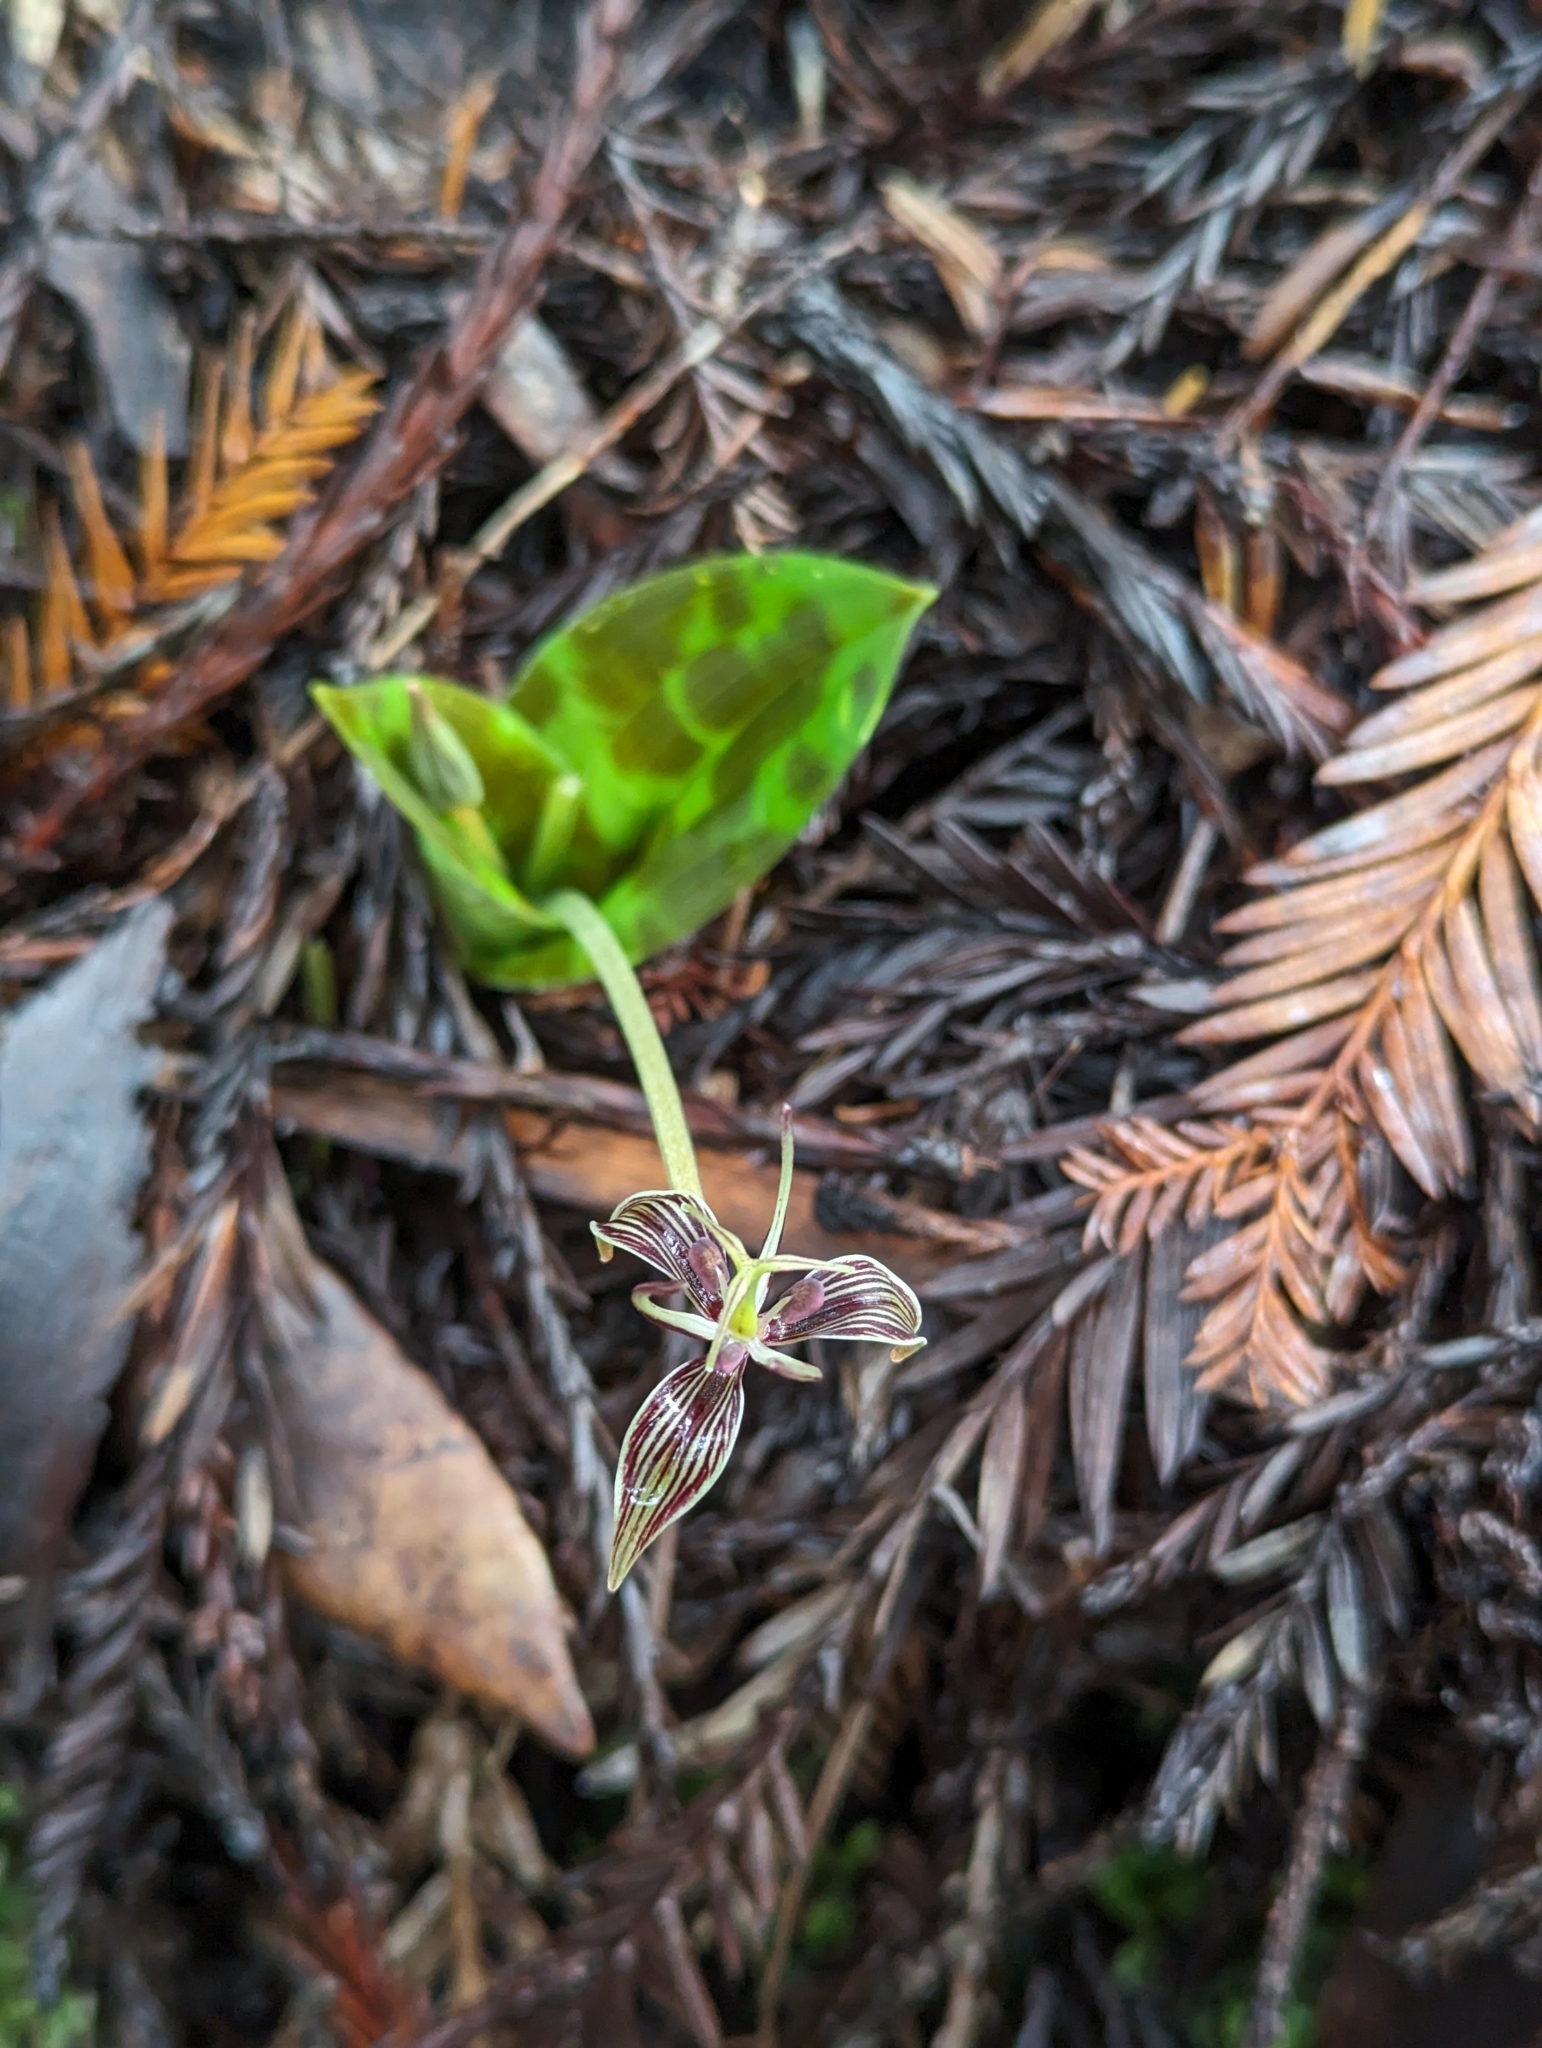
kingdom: Plantae
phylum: Tracheophyta
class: Liliopsida
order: Liliales
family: Liliaceae
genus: Scoliopus
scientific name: Scoliopus bigelovii
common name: Foetid adder's-tongue
